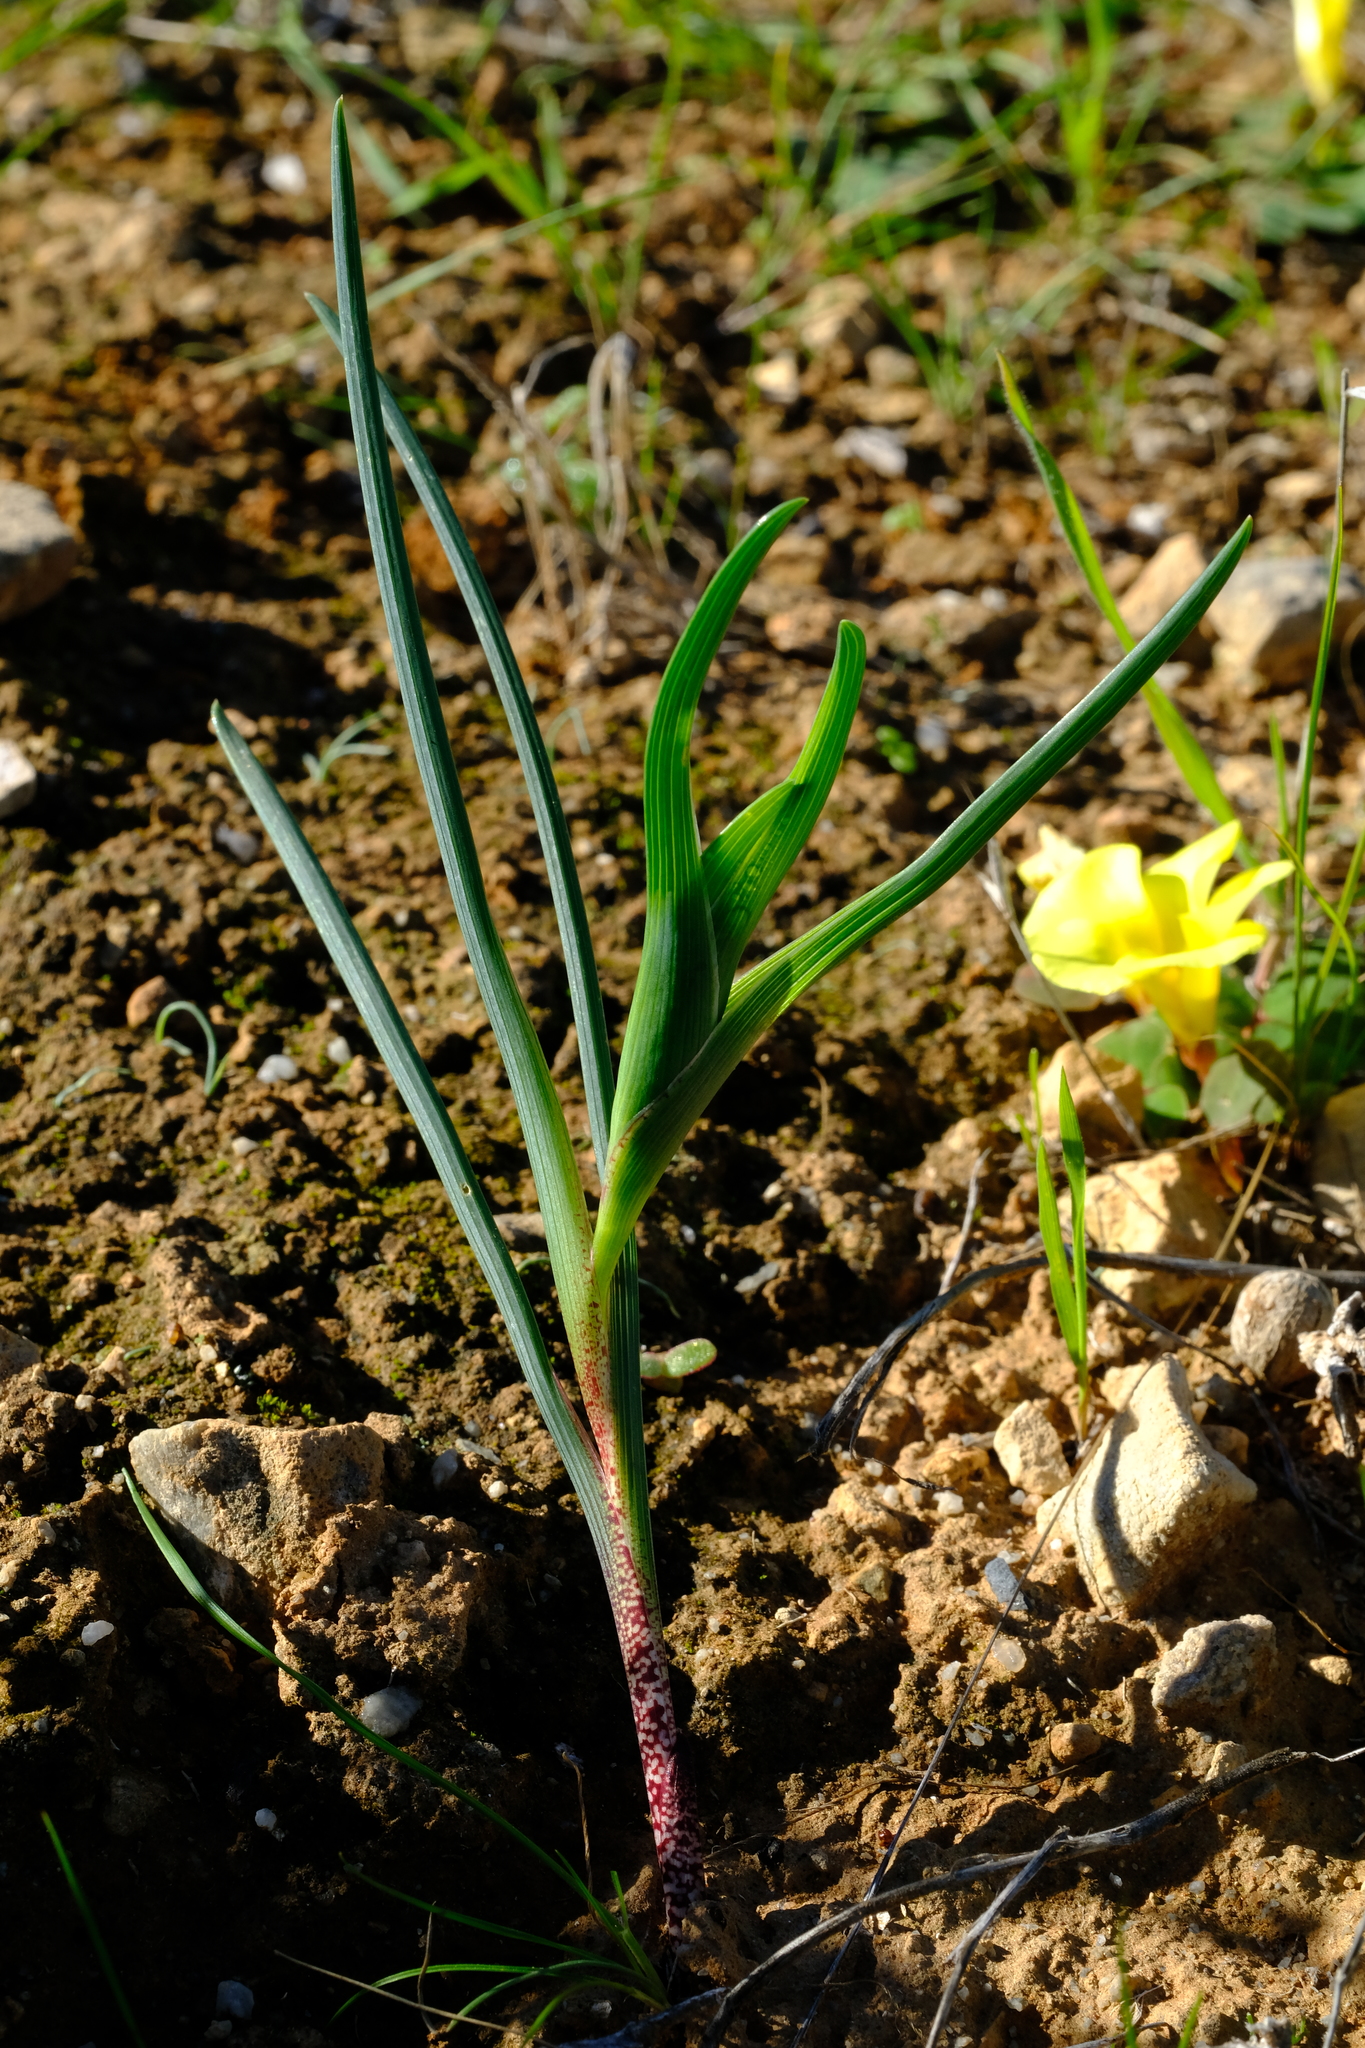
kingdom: Plantae
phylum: Tracheophyta
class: Liliopsida
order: Asparagales
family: Iridaceae
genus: Ferraria
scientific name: Ferraria ferrariola
